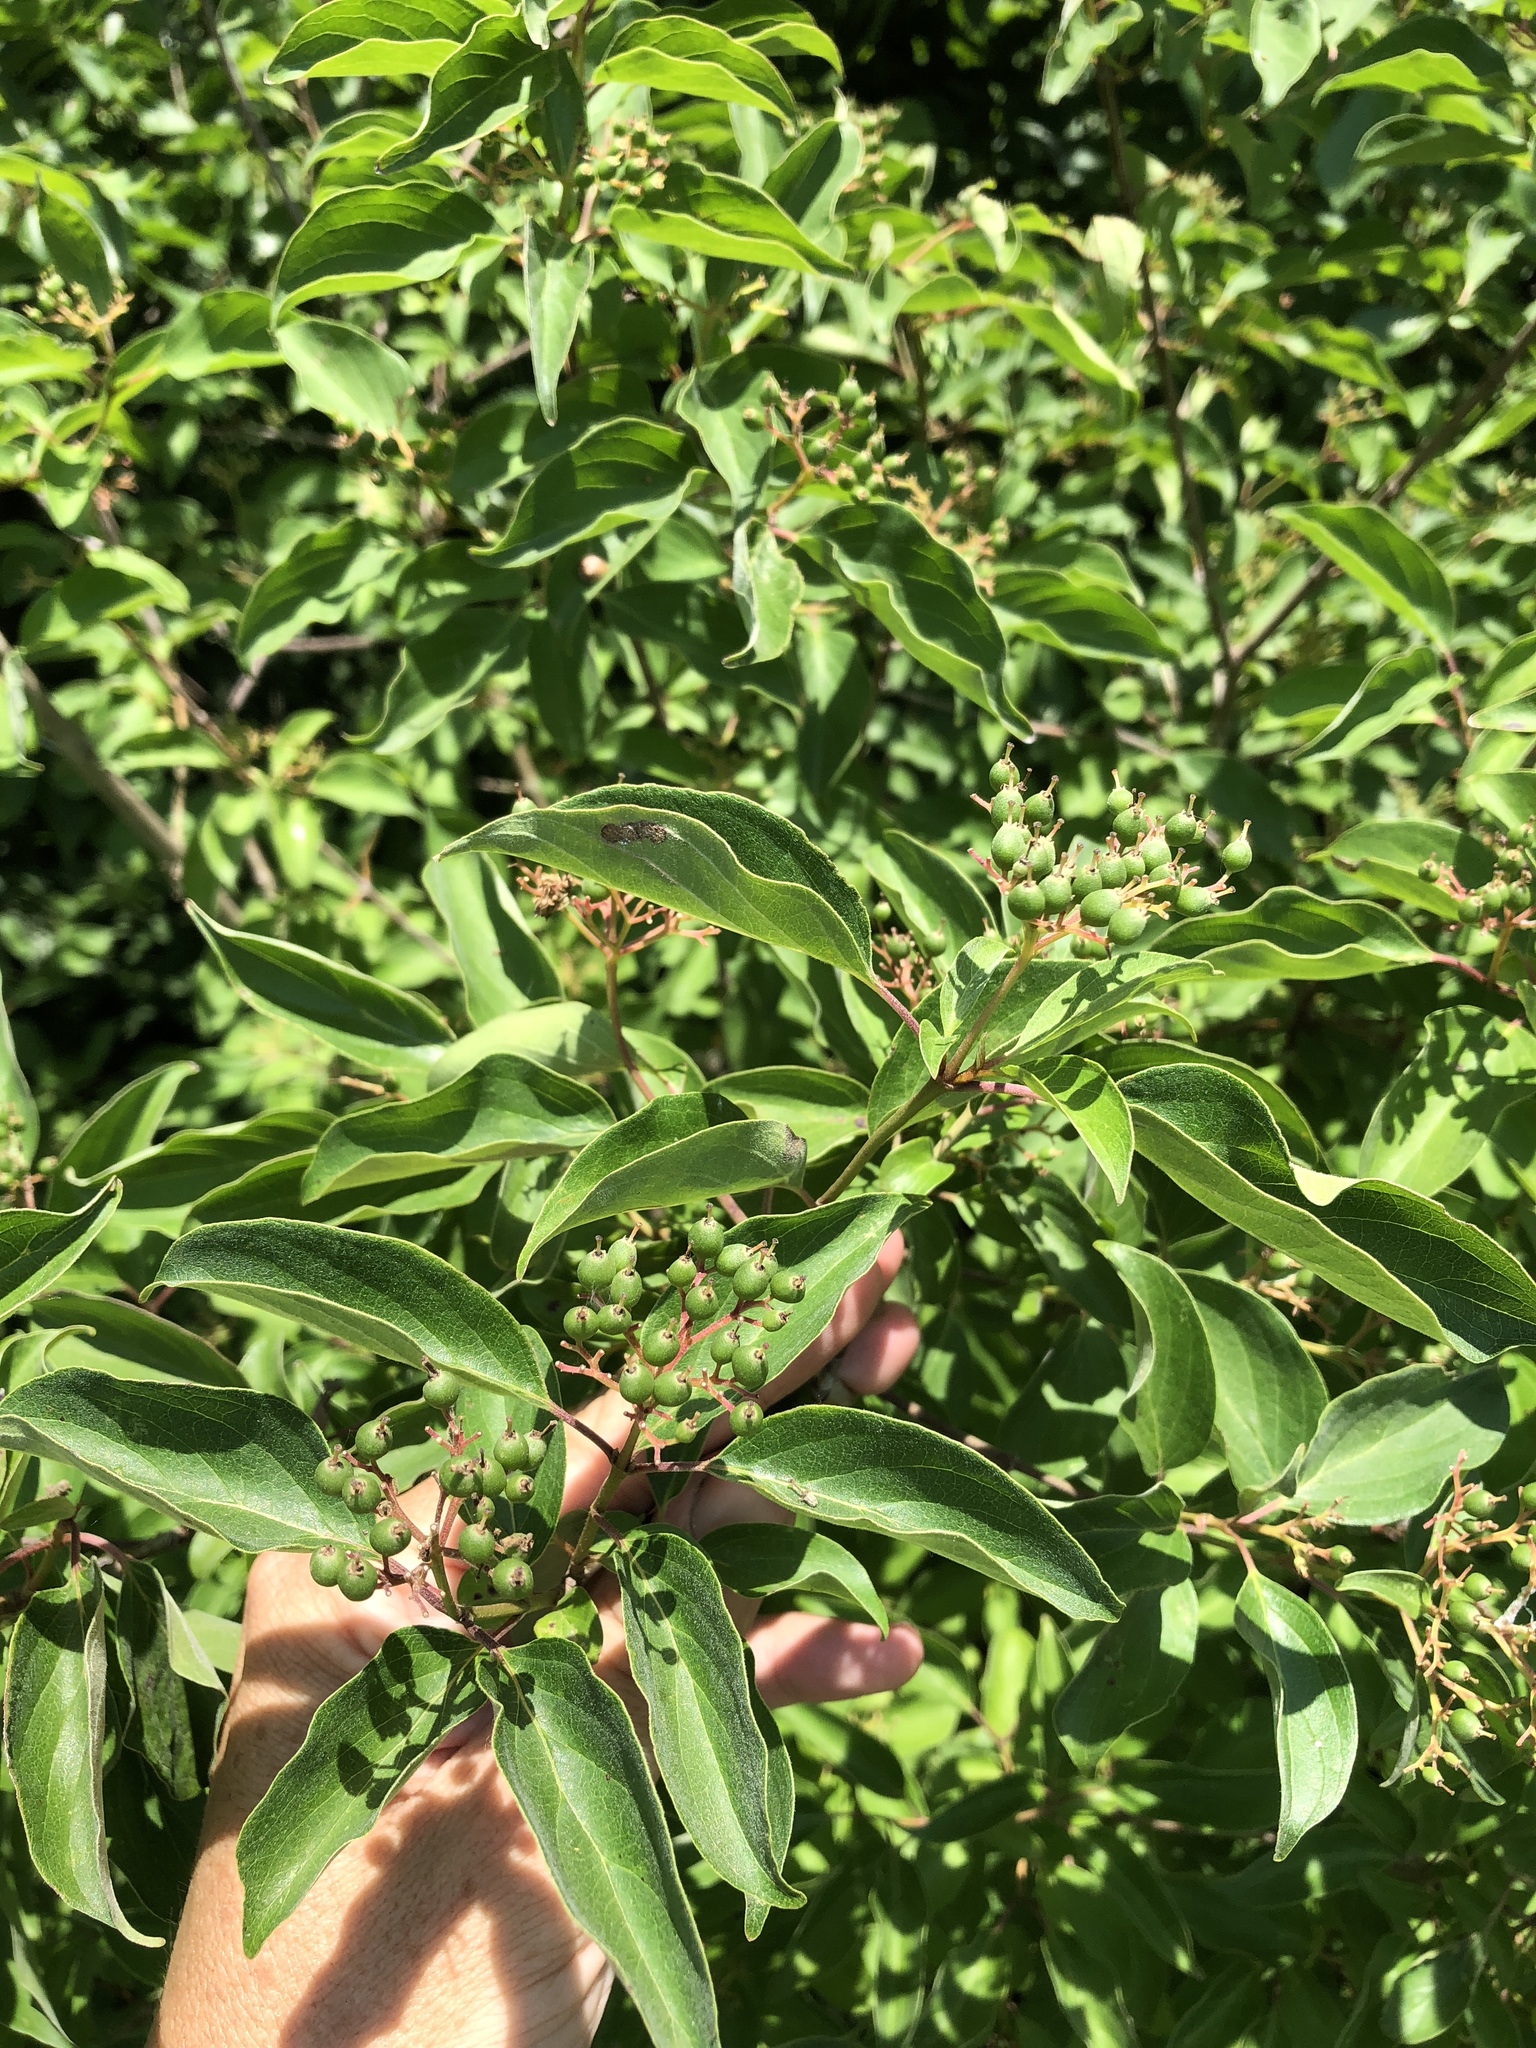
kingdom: Plantae
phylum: Tracheophyta
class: Magnoliopsida
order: Cornales
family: Cornaceae
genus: Cornus
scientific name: Cornus drummondii
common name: Rough-leaf dogwood
